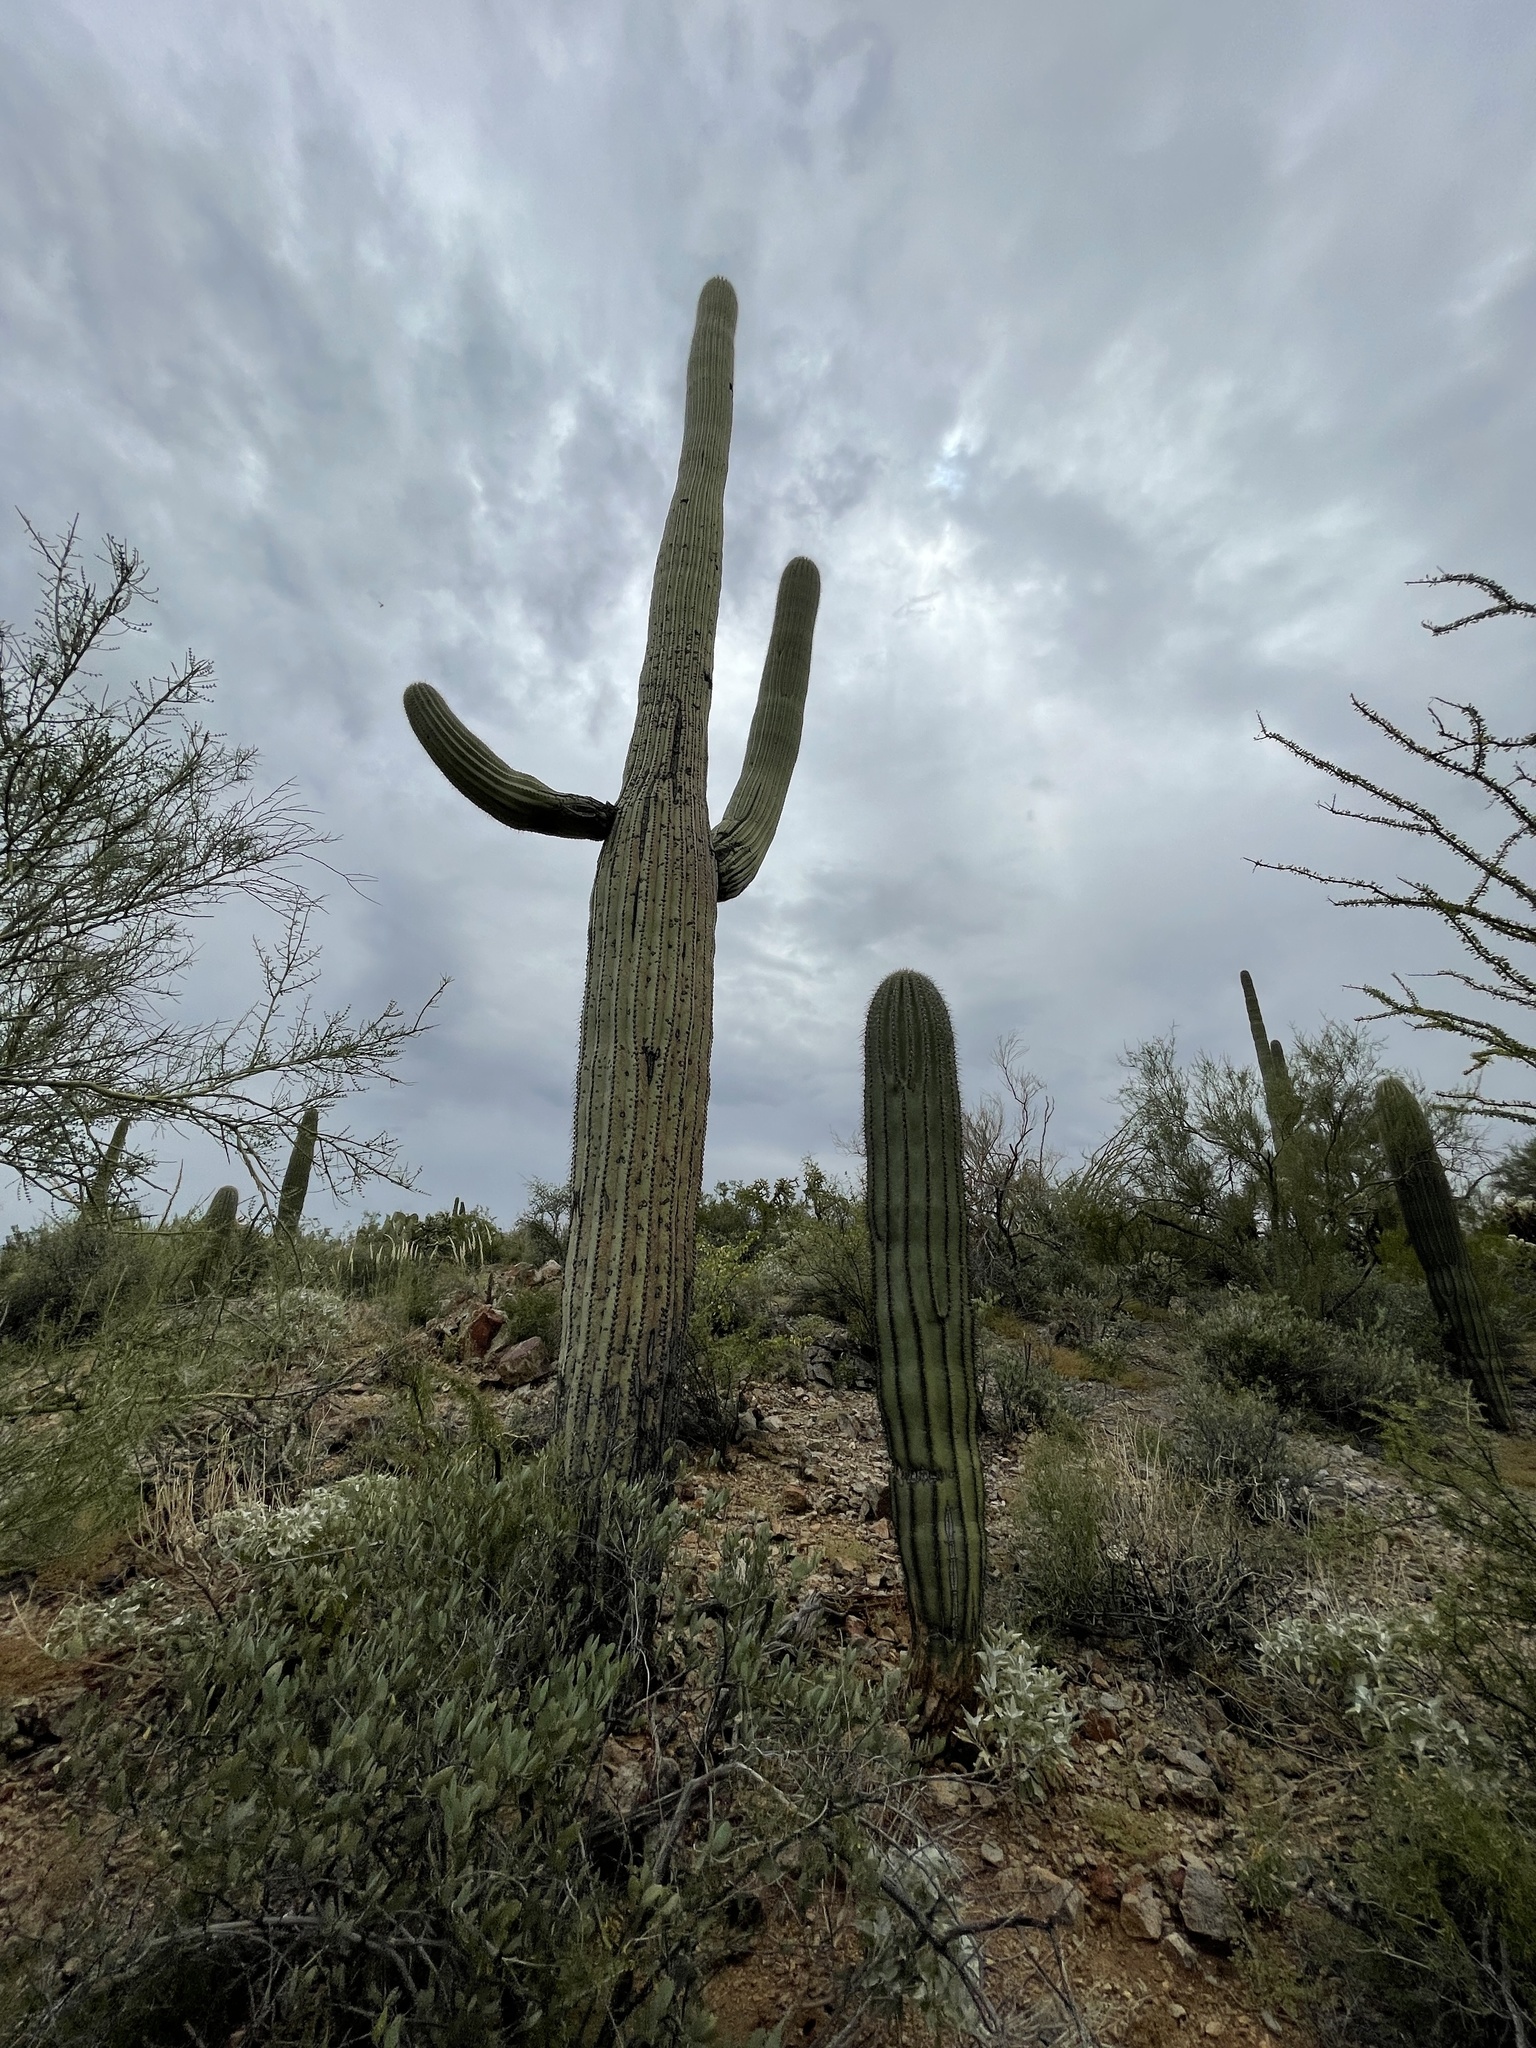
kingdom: Plantae
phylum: Tracheophyta
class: Magnoliopsida
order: Caryophyllales
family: Cactaceae
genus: Carnegiea
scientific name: Carnegiea gigantea
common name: Saguaro
